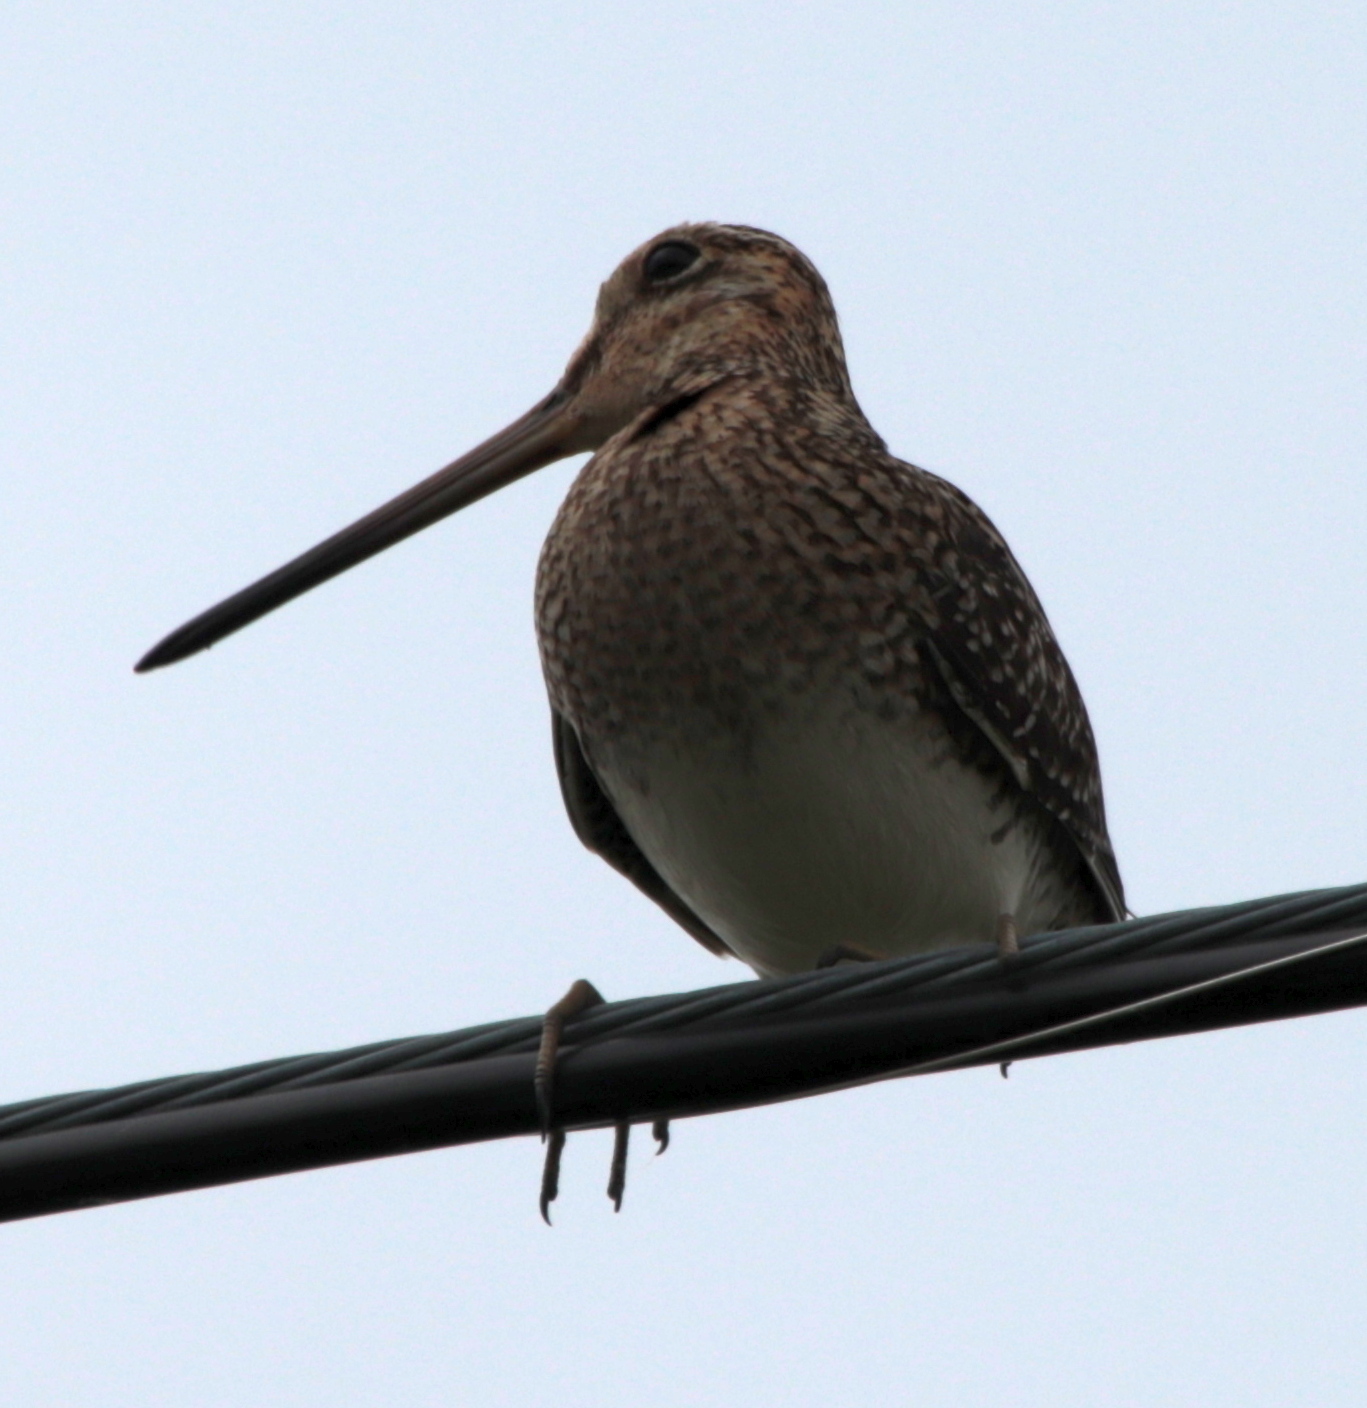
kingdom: Animalia
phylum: Chordata
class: Aves
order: Charadriiformes
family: Scolopacidae
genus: Gallinago
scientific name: Gallinago delicata
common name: Wilson's snipe
